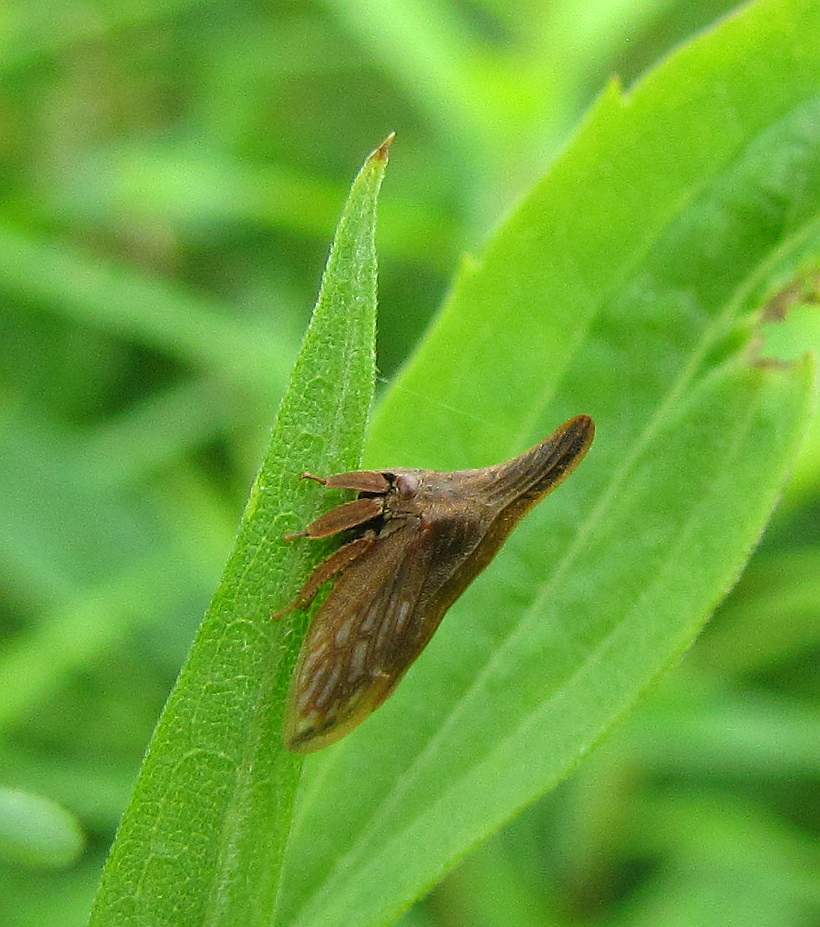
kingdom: Animalia
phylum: Arthropoda
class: Insecta
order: Hemiptera
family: Membracidae
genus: Enchenopa
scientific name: Enchenopa latipes
